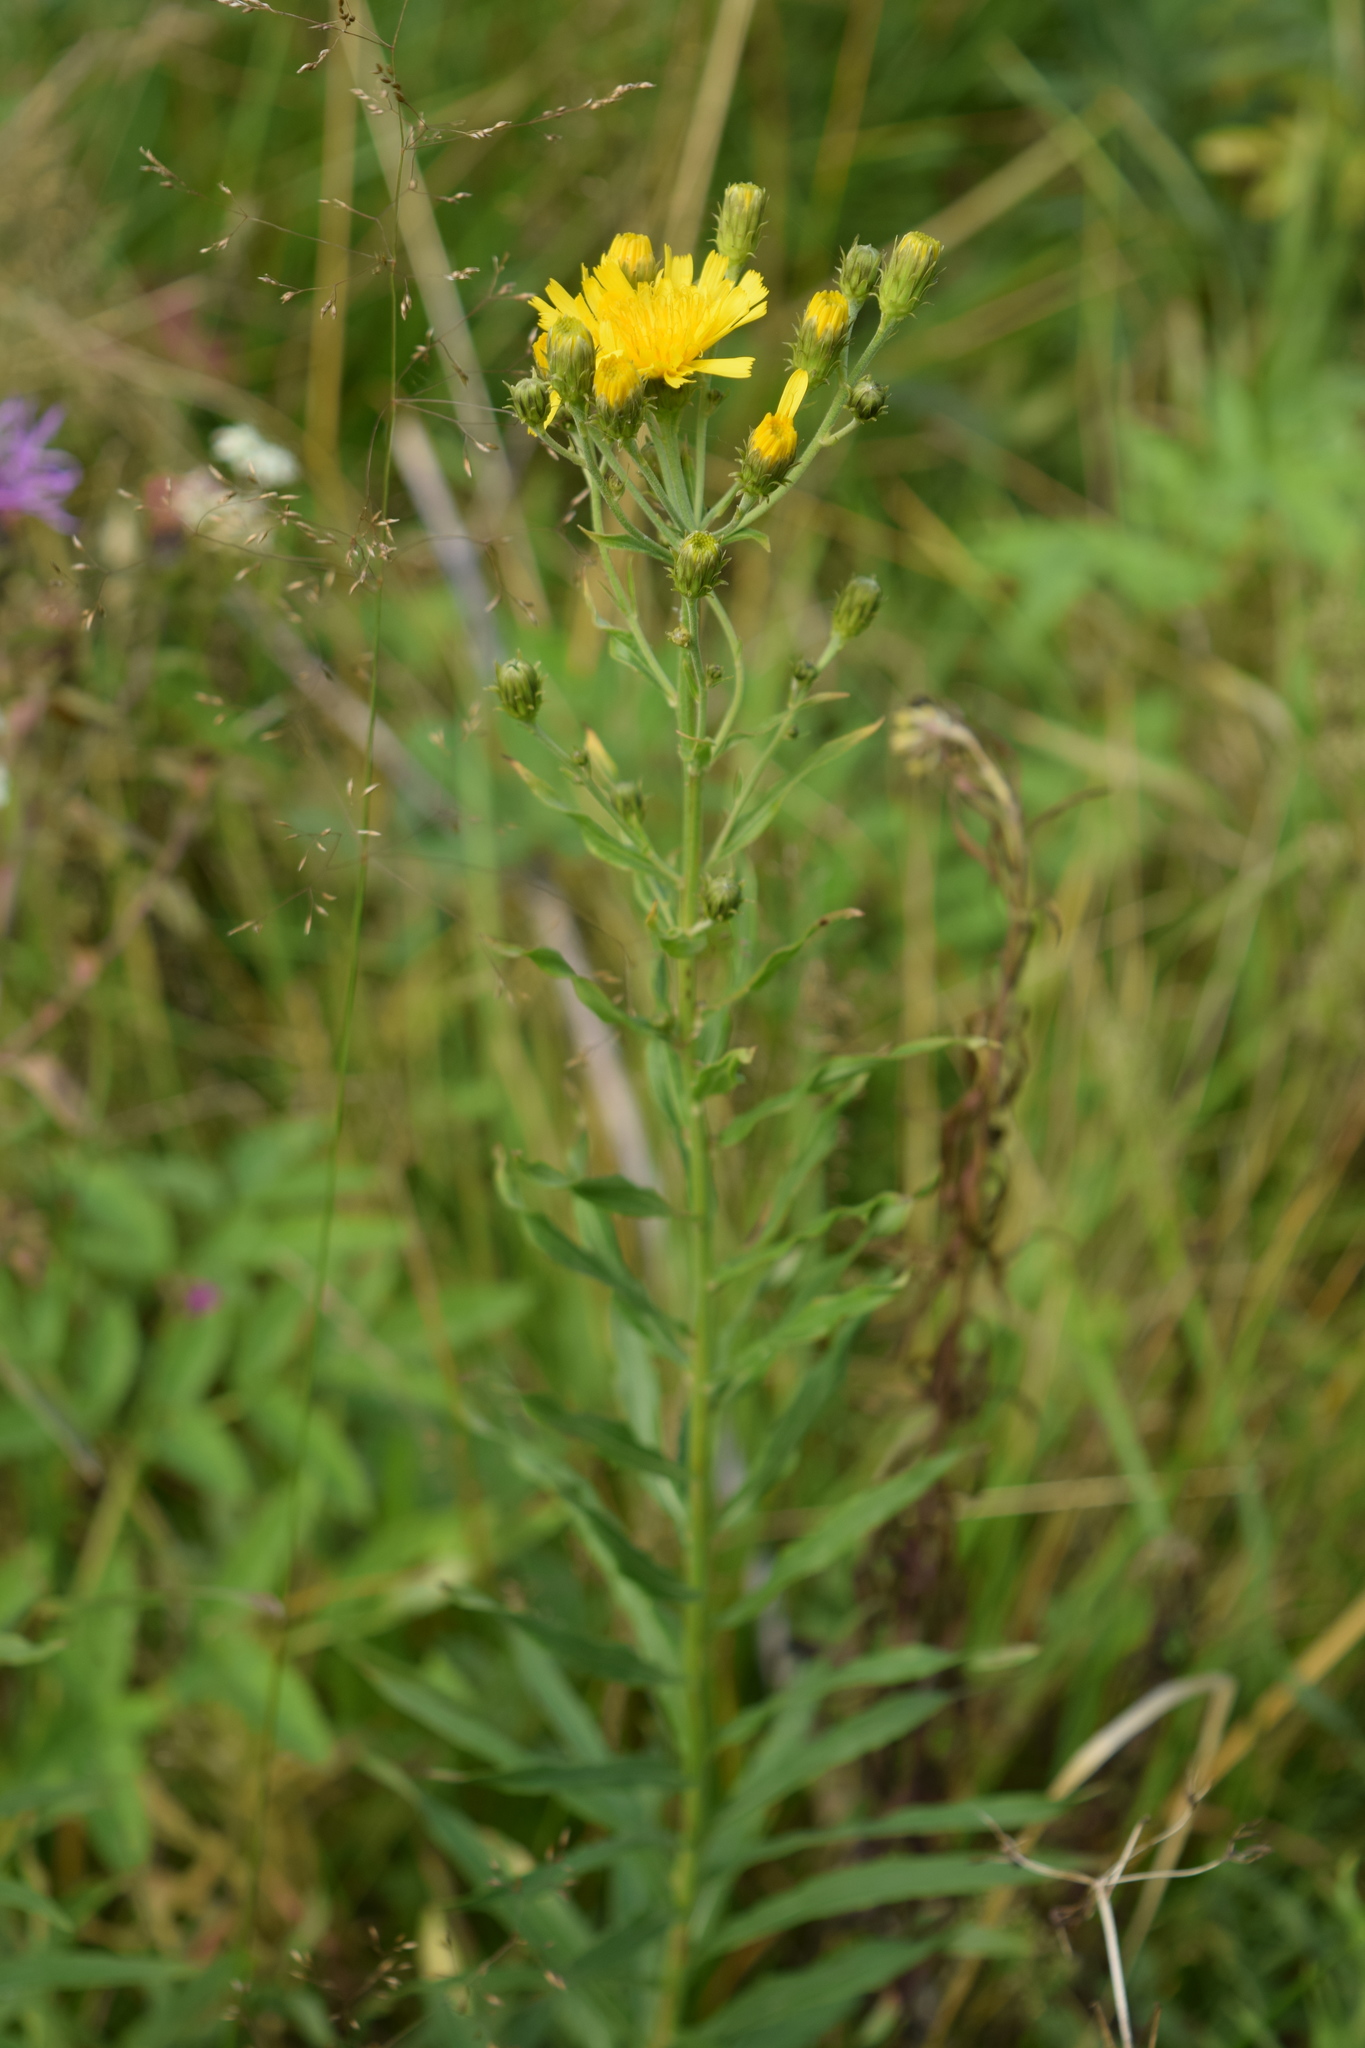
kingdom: Plantae
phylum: Tracheophyta
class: Magnoliopsida
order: Asterales
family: Asteraceae
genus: Hieracium
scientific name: Hieracium umbellatum
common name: Northern hawkweed
